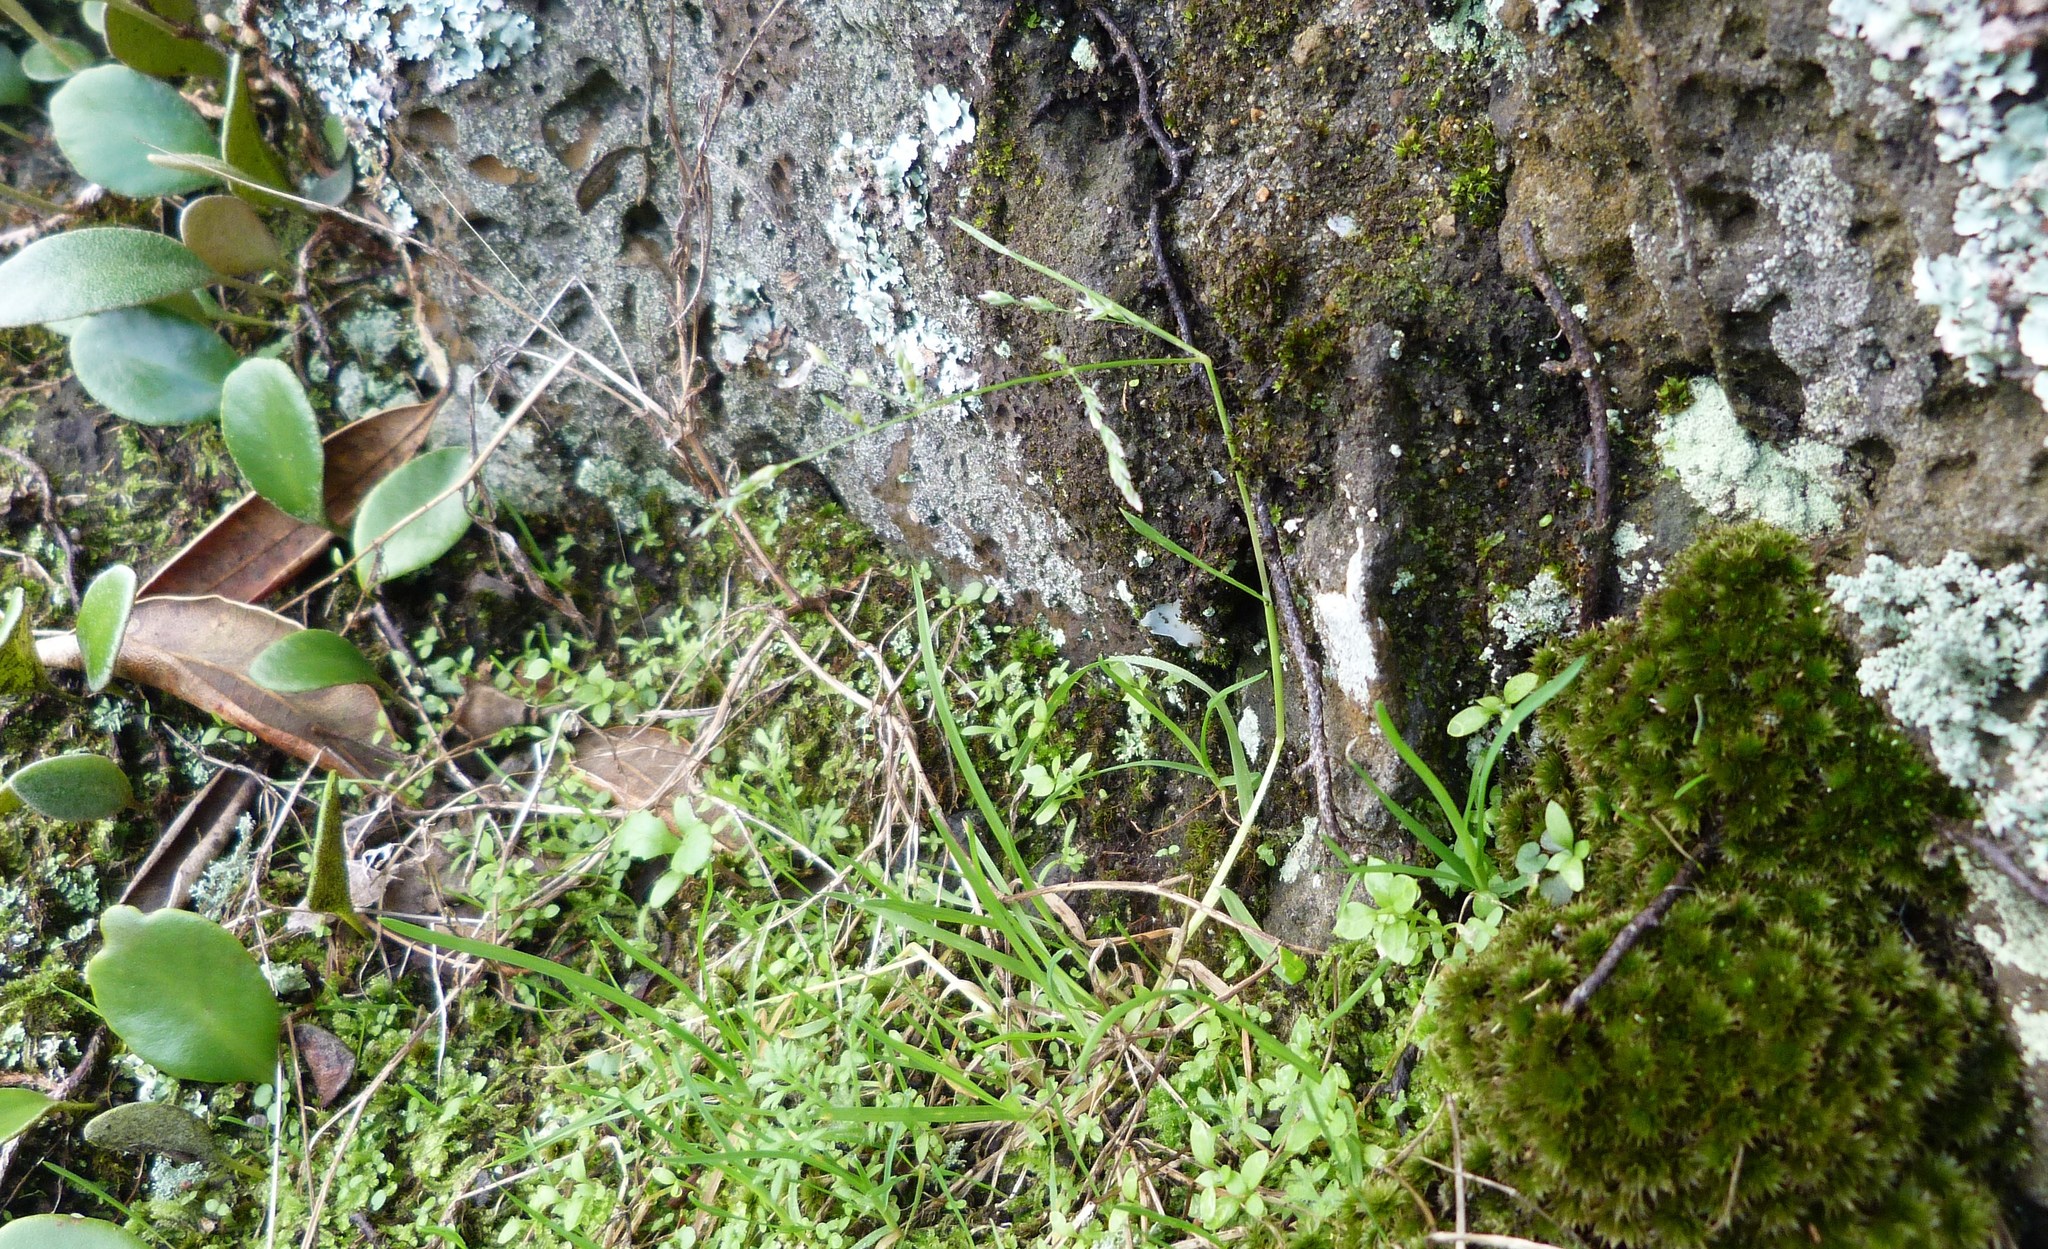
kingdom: Plantae
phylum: Tracheophyta
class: Liliopsida
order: Poales
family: Poaceae
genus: Poa
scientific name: Poa annua
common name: Annual bluegrass
